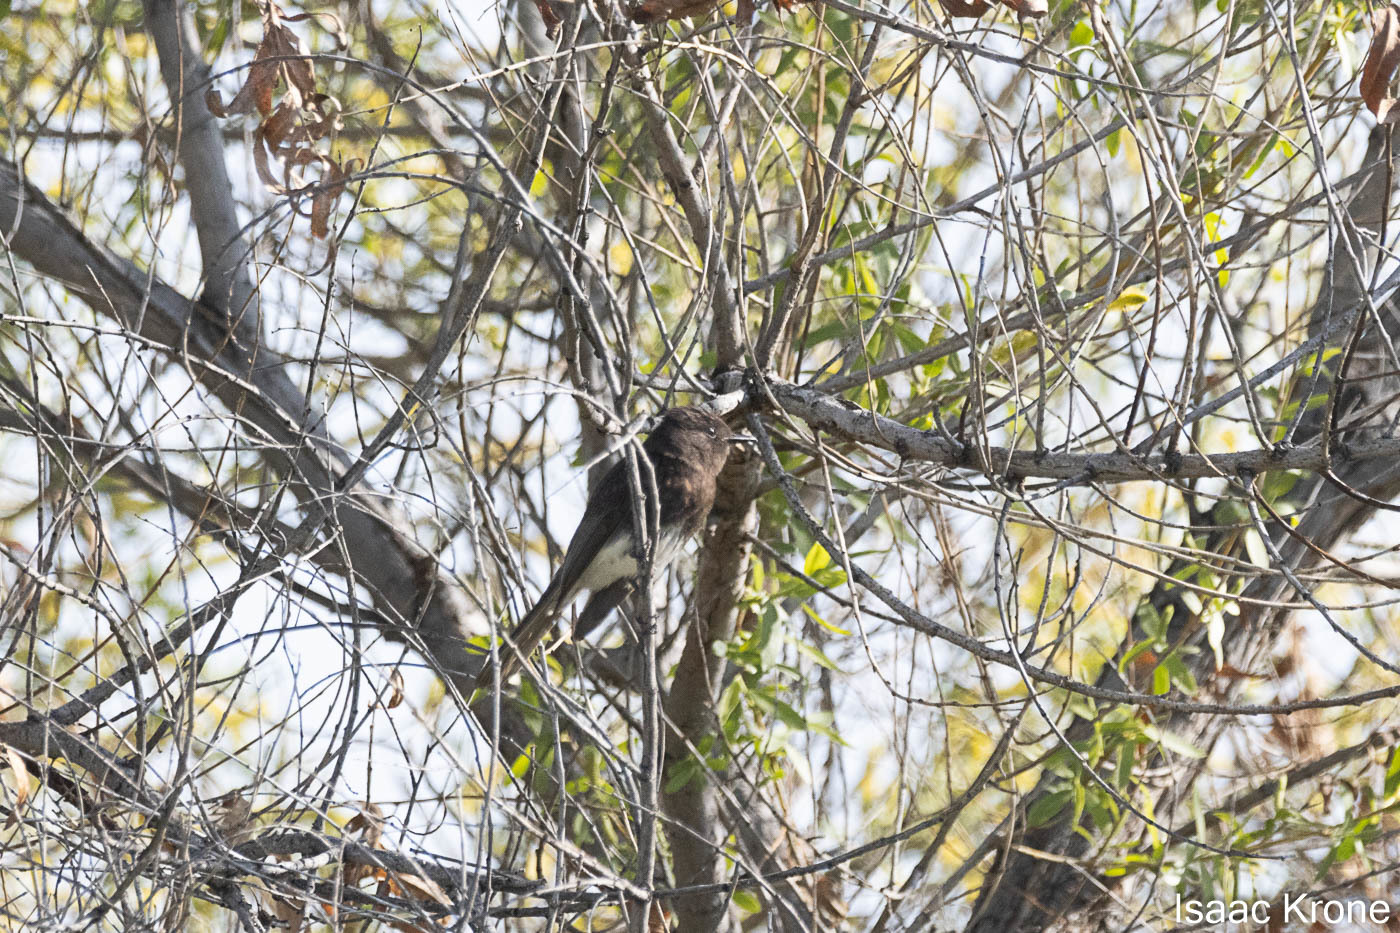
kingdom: Animalia
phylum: Chordata
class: Aves
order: Passeriformes
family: Tyrannidae
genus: Sayornis
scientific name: Sayornis nigricans
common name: Black phoebe
